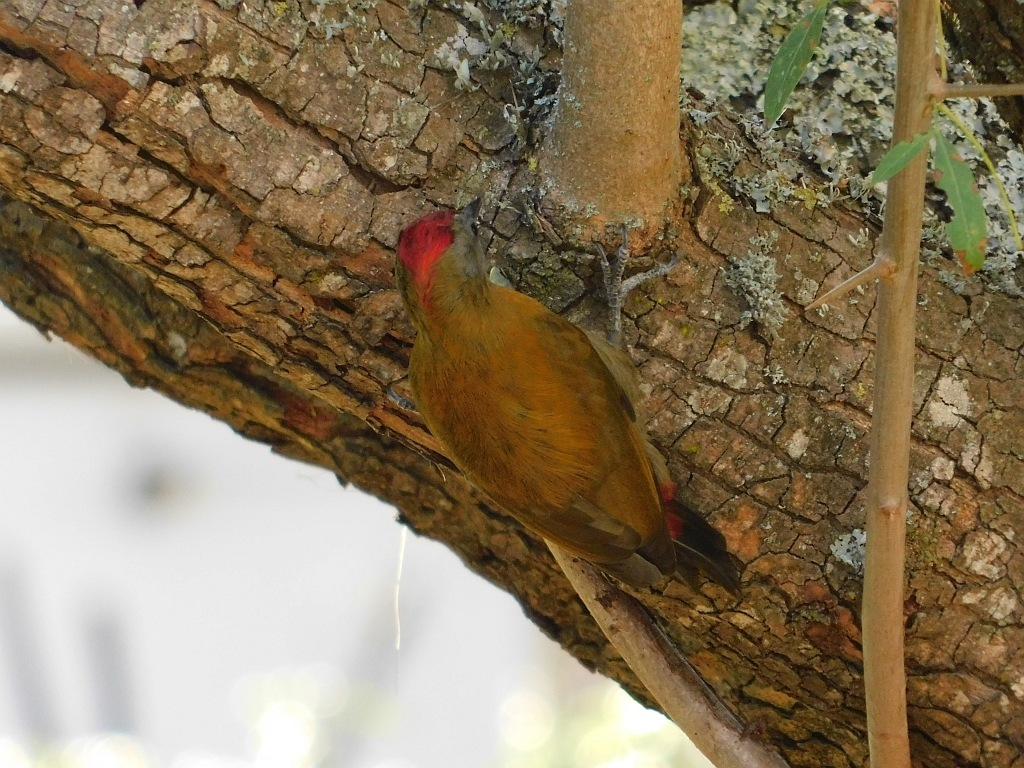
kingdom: Animalia
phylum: Chordata
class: Aves
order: Piciformes
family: Picidae
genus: Dendropicos
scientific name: Dendropicos griseocephalus
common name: Olive woodpecker
